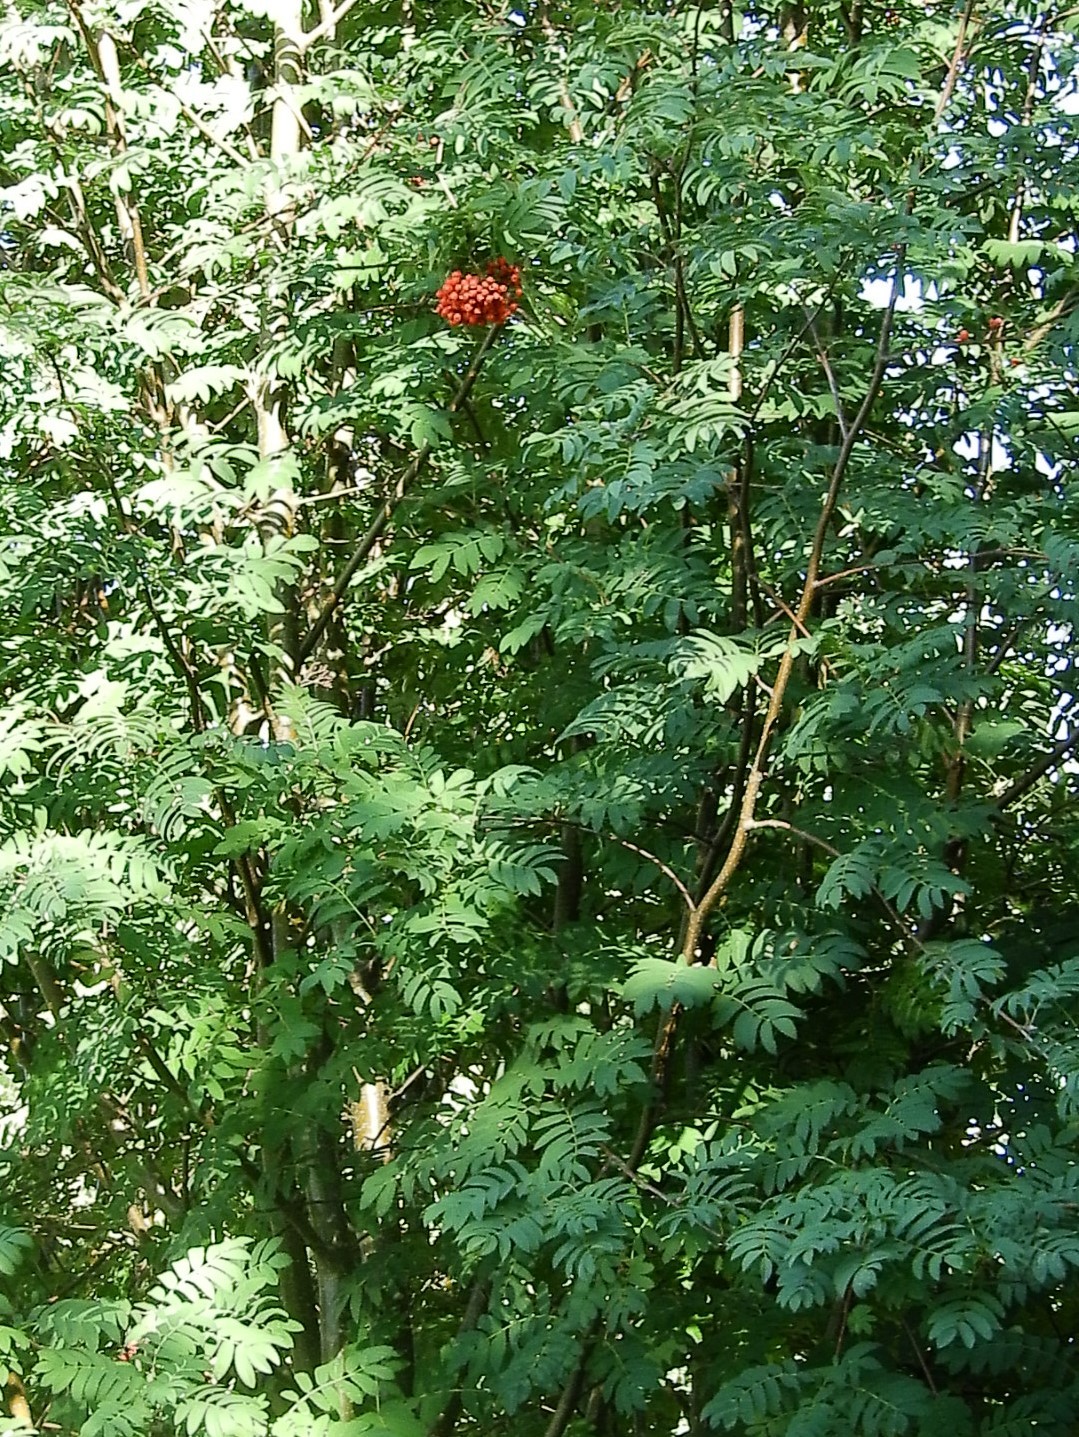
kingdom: Plantae
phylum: Tracheophyta
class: Magnoliopsida
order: Asterales
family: Asteraceae
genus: Eutrochium
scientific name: Eutrochium maculatum
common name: Spotted joe pye weed
